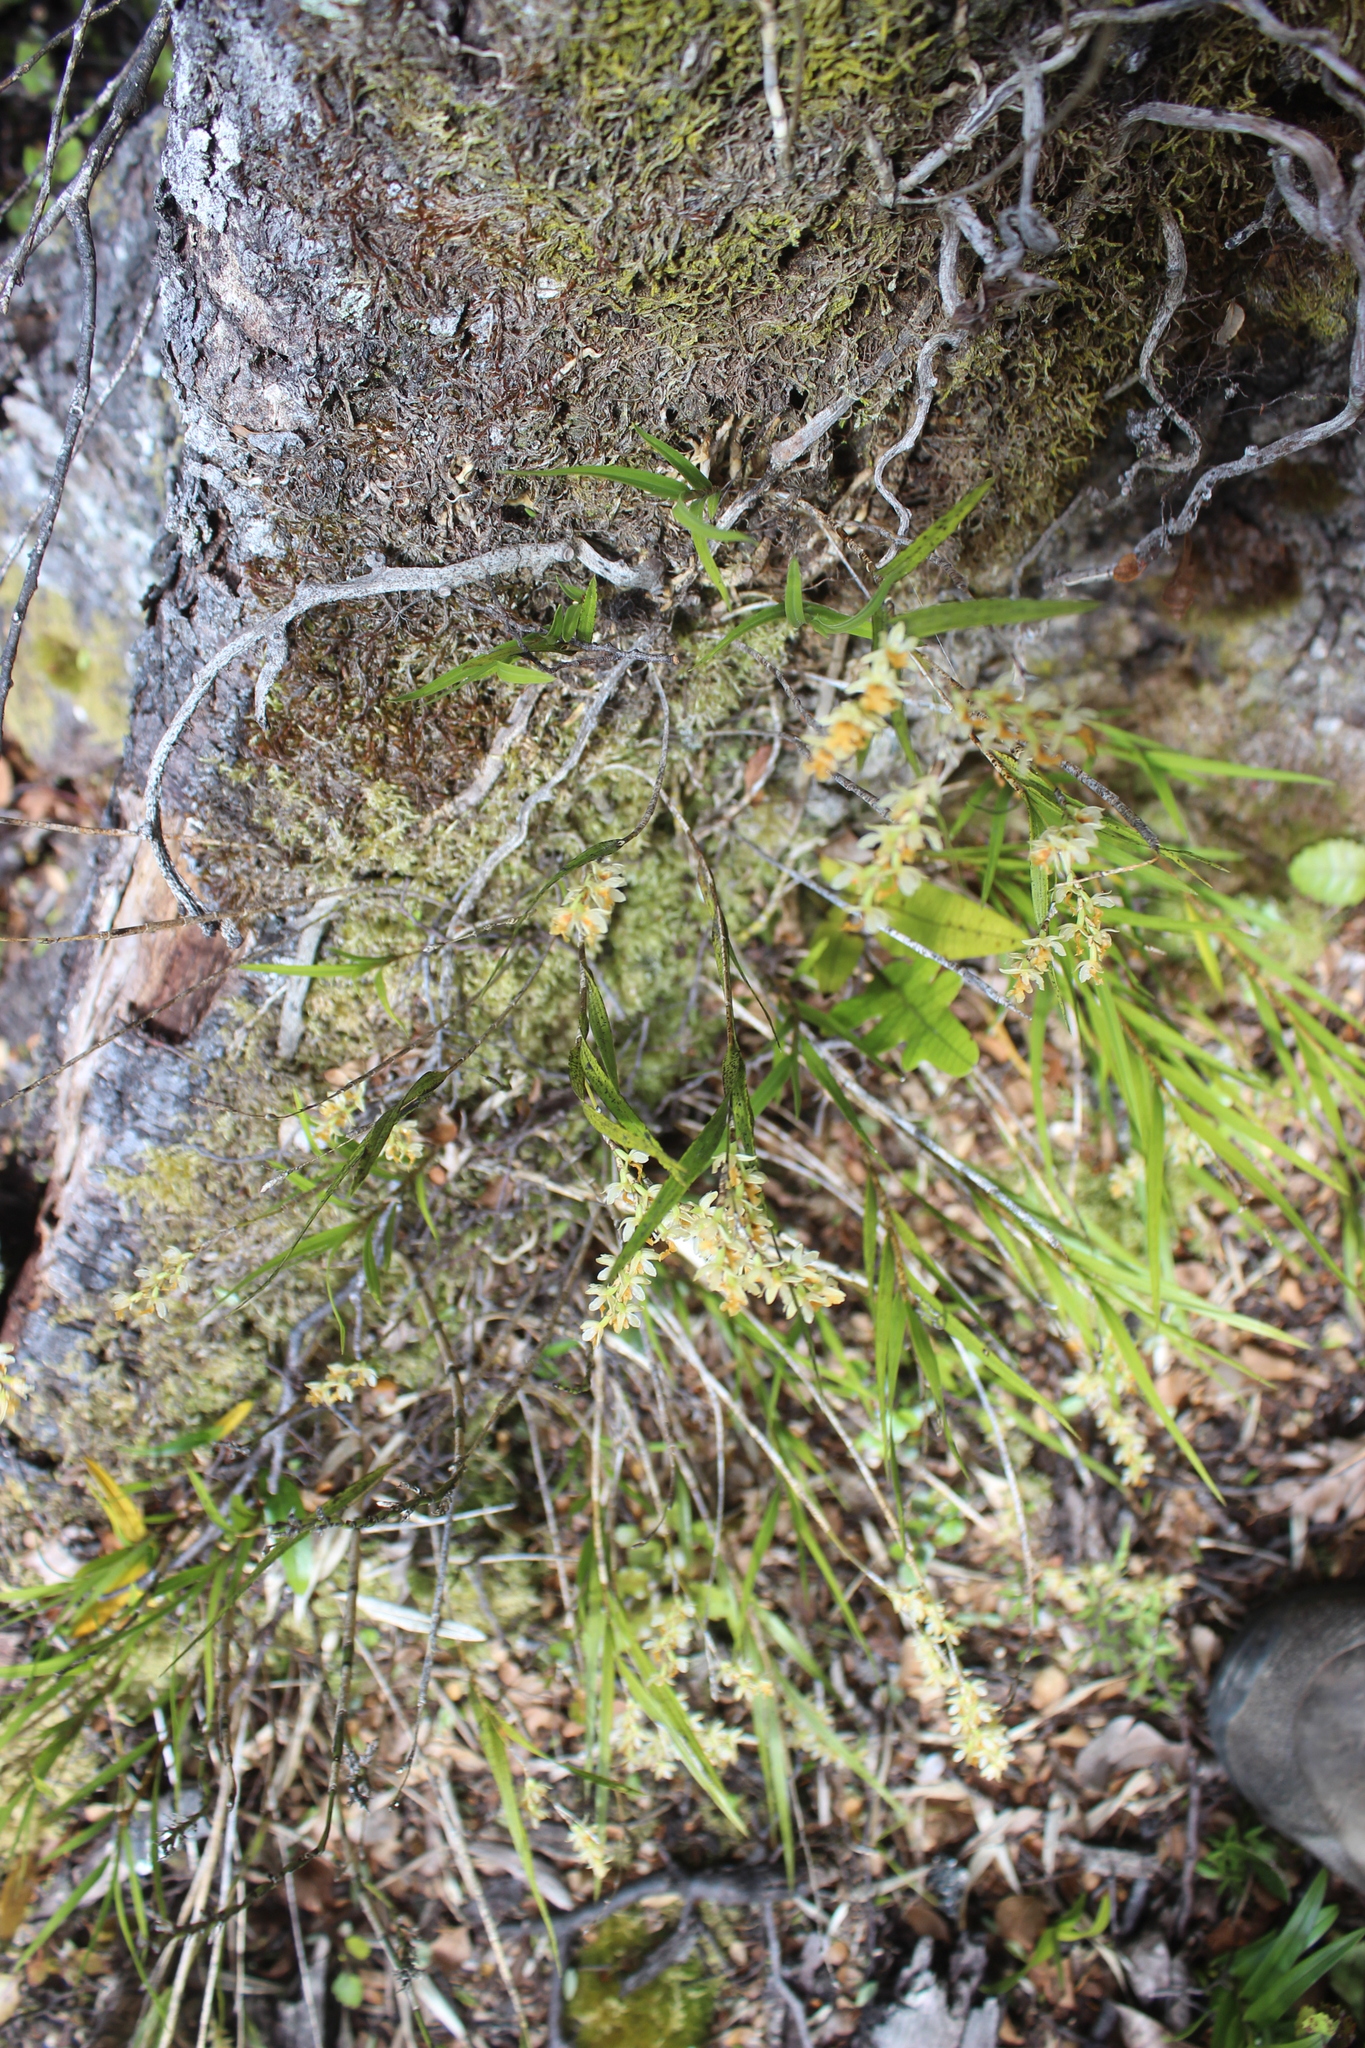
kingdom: Plantae
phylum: Tracheophyta
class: Liliopsida
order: Asparagales
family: Orchidaceae
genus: Earina
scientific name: Earina mucronata
